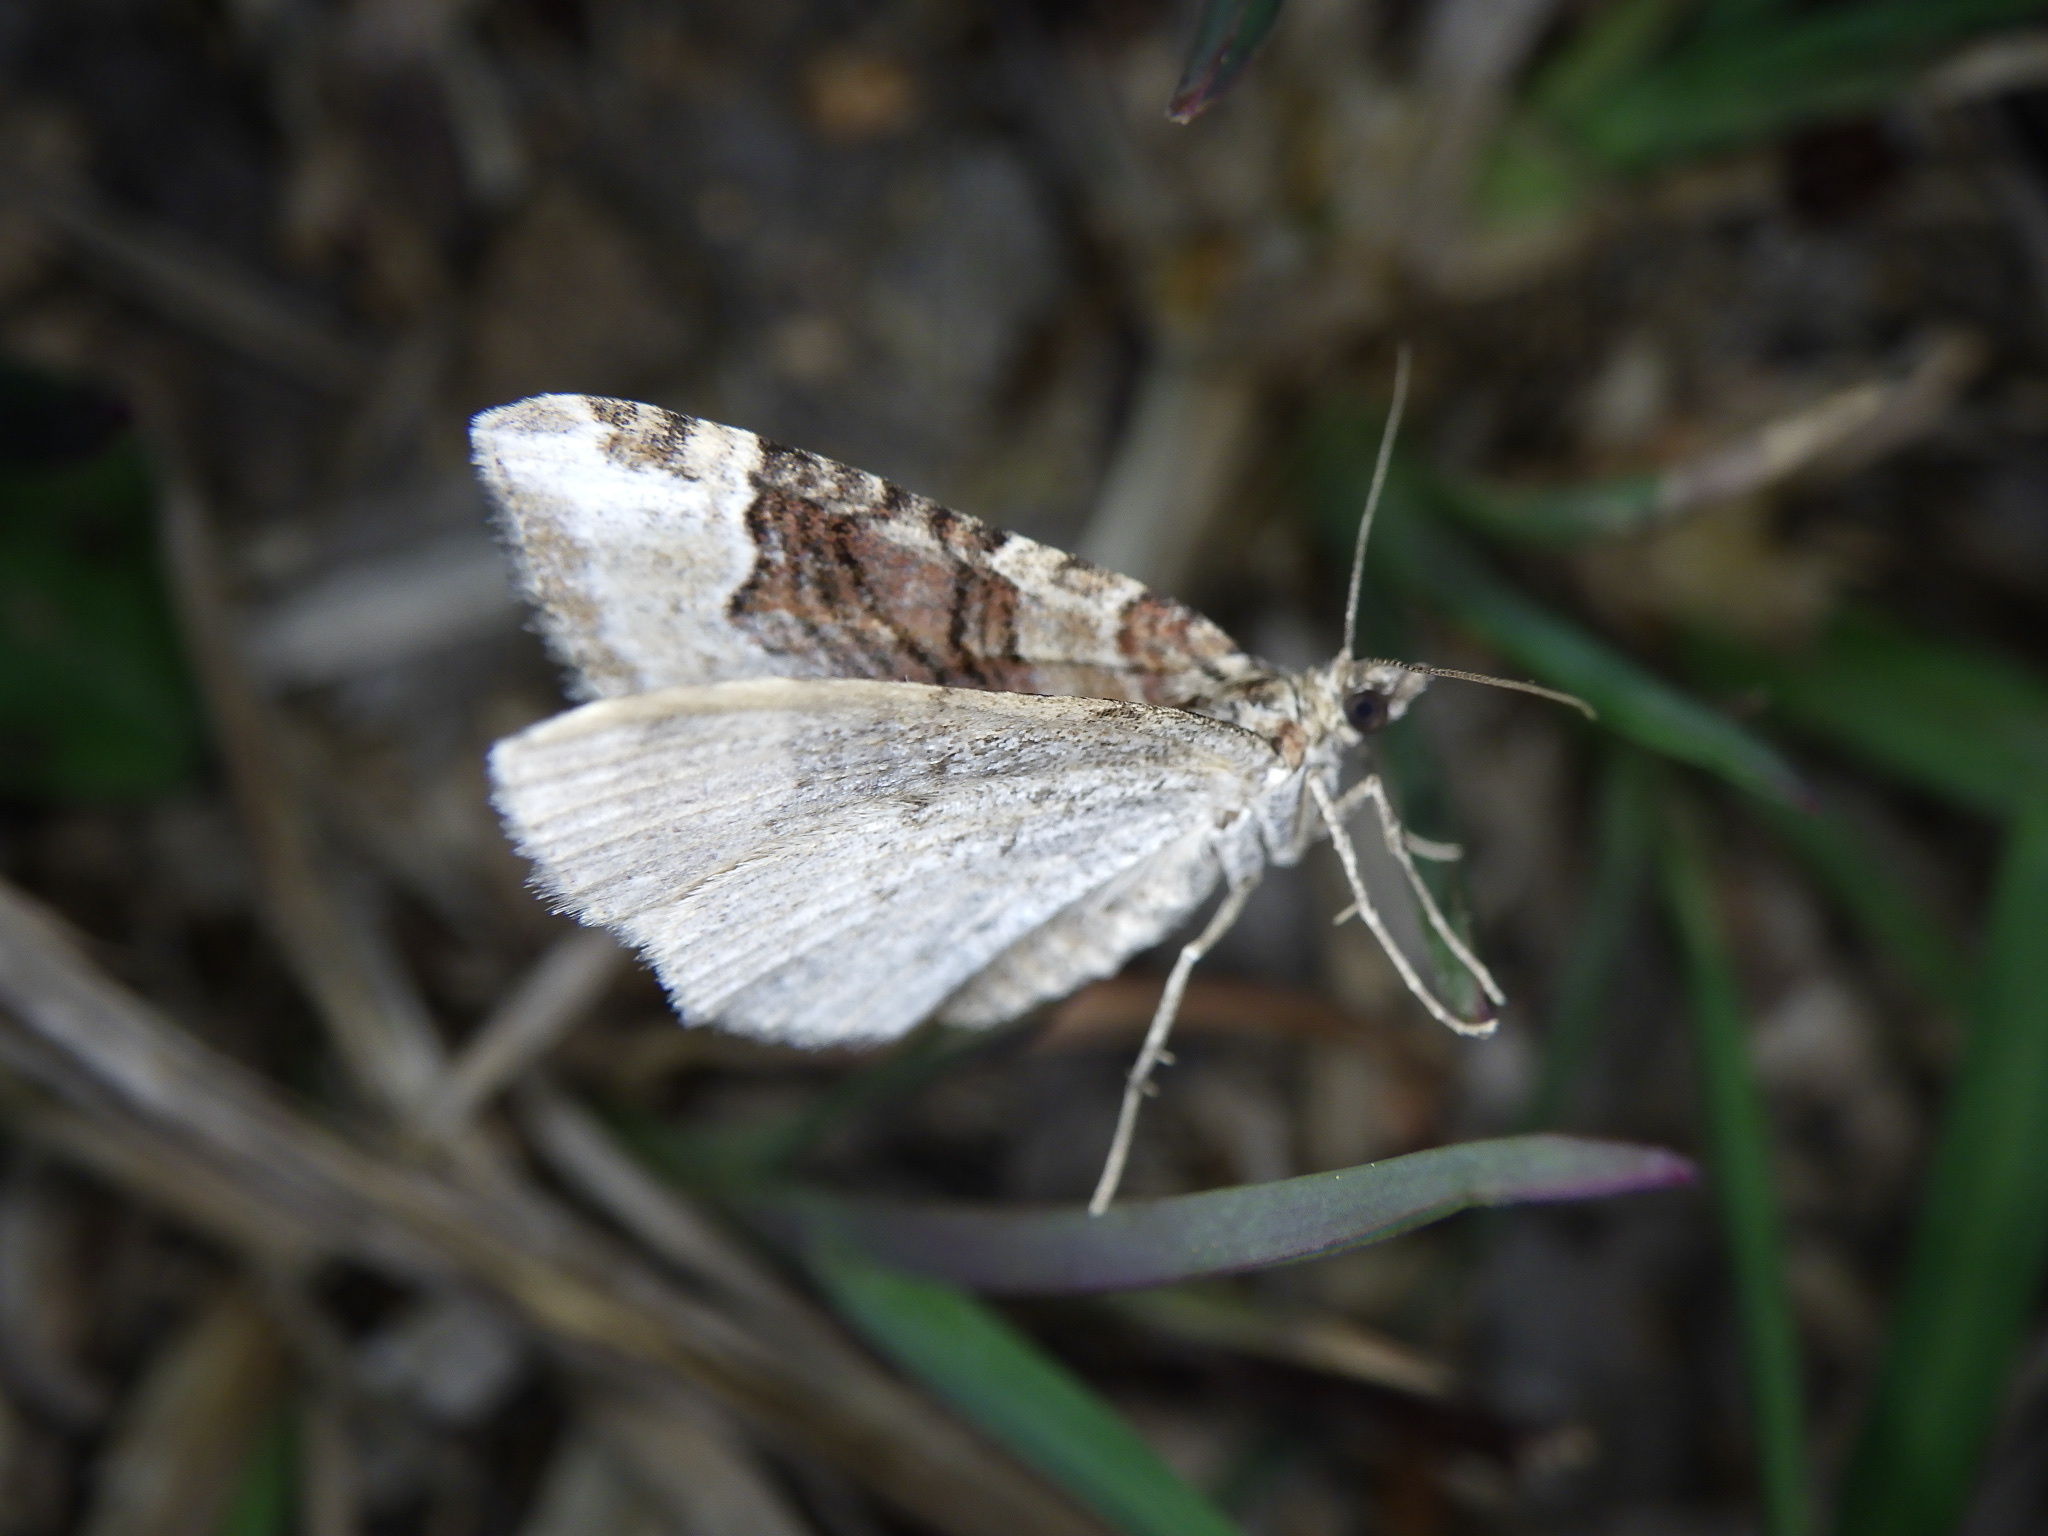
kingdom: Animalia
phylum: Arthropoda
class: Insecta
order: Lepidoptera
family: Geometridae
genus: Xanthorhoe
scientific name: Xanthorhoe hortensiaria
